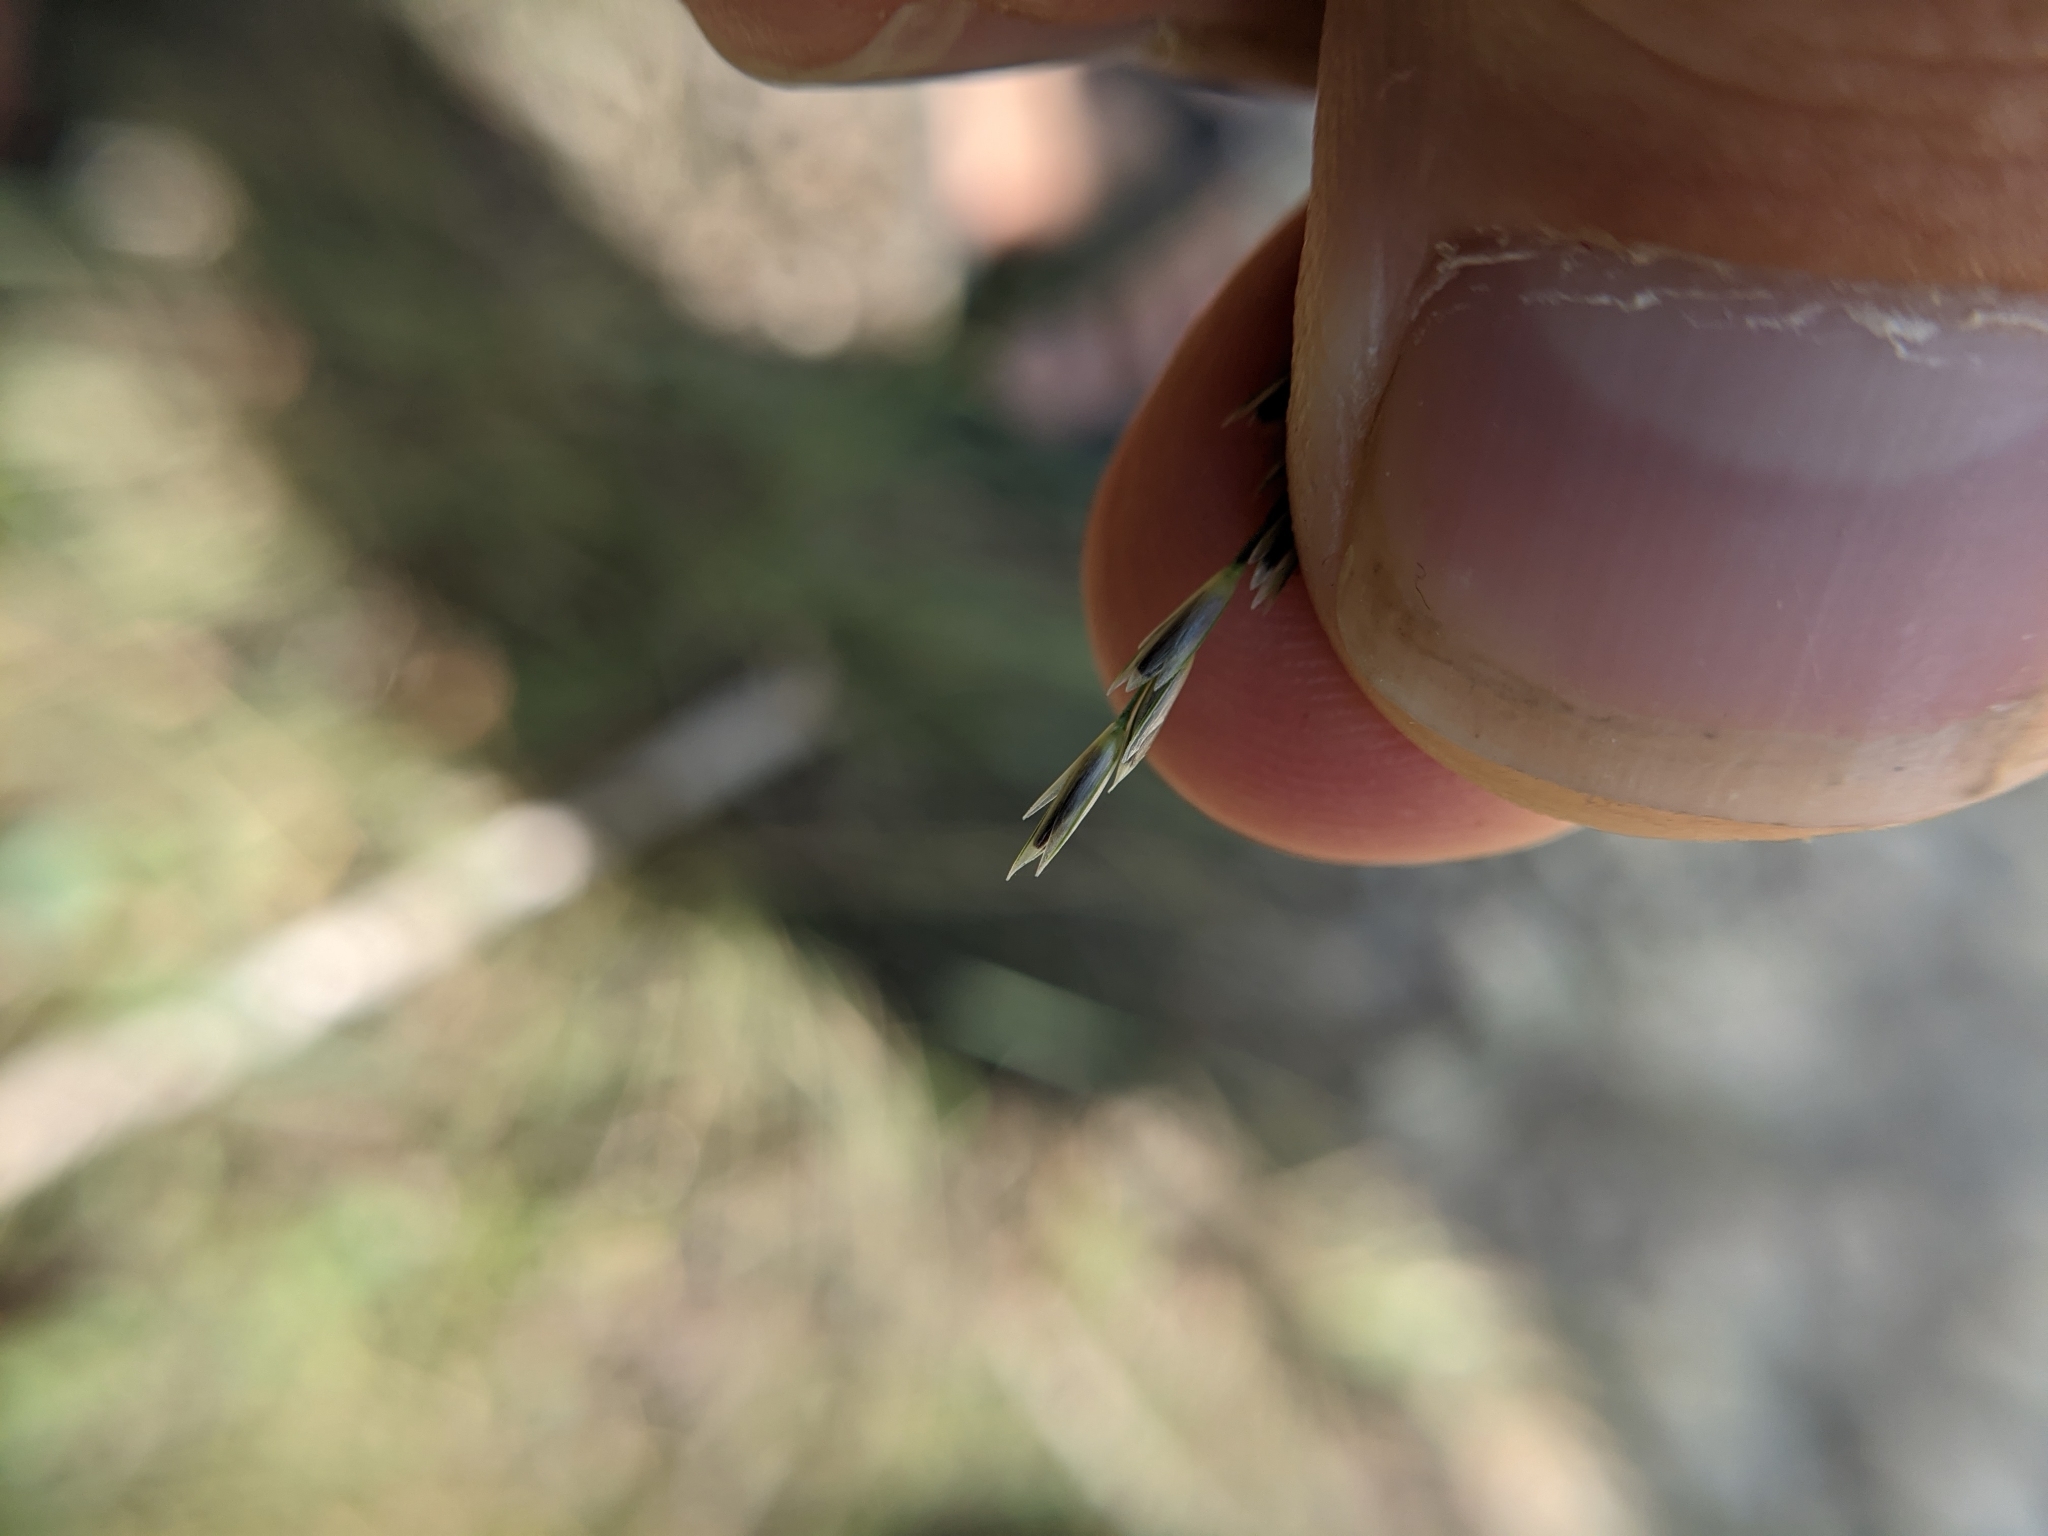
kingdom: Plantae
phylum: Tracheophyta
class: Liliopsida
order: Poales
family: Poaceae
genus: Sporobolus
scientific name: Sporobolus compositus
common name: Rough dropseed
